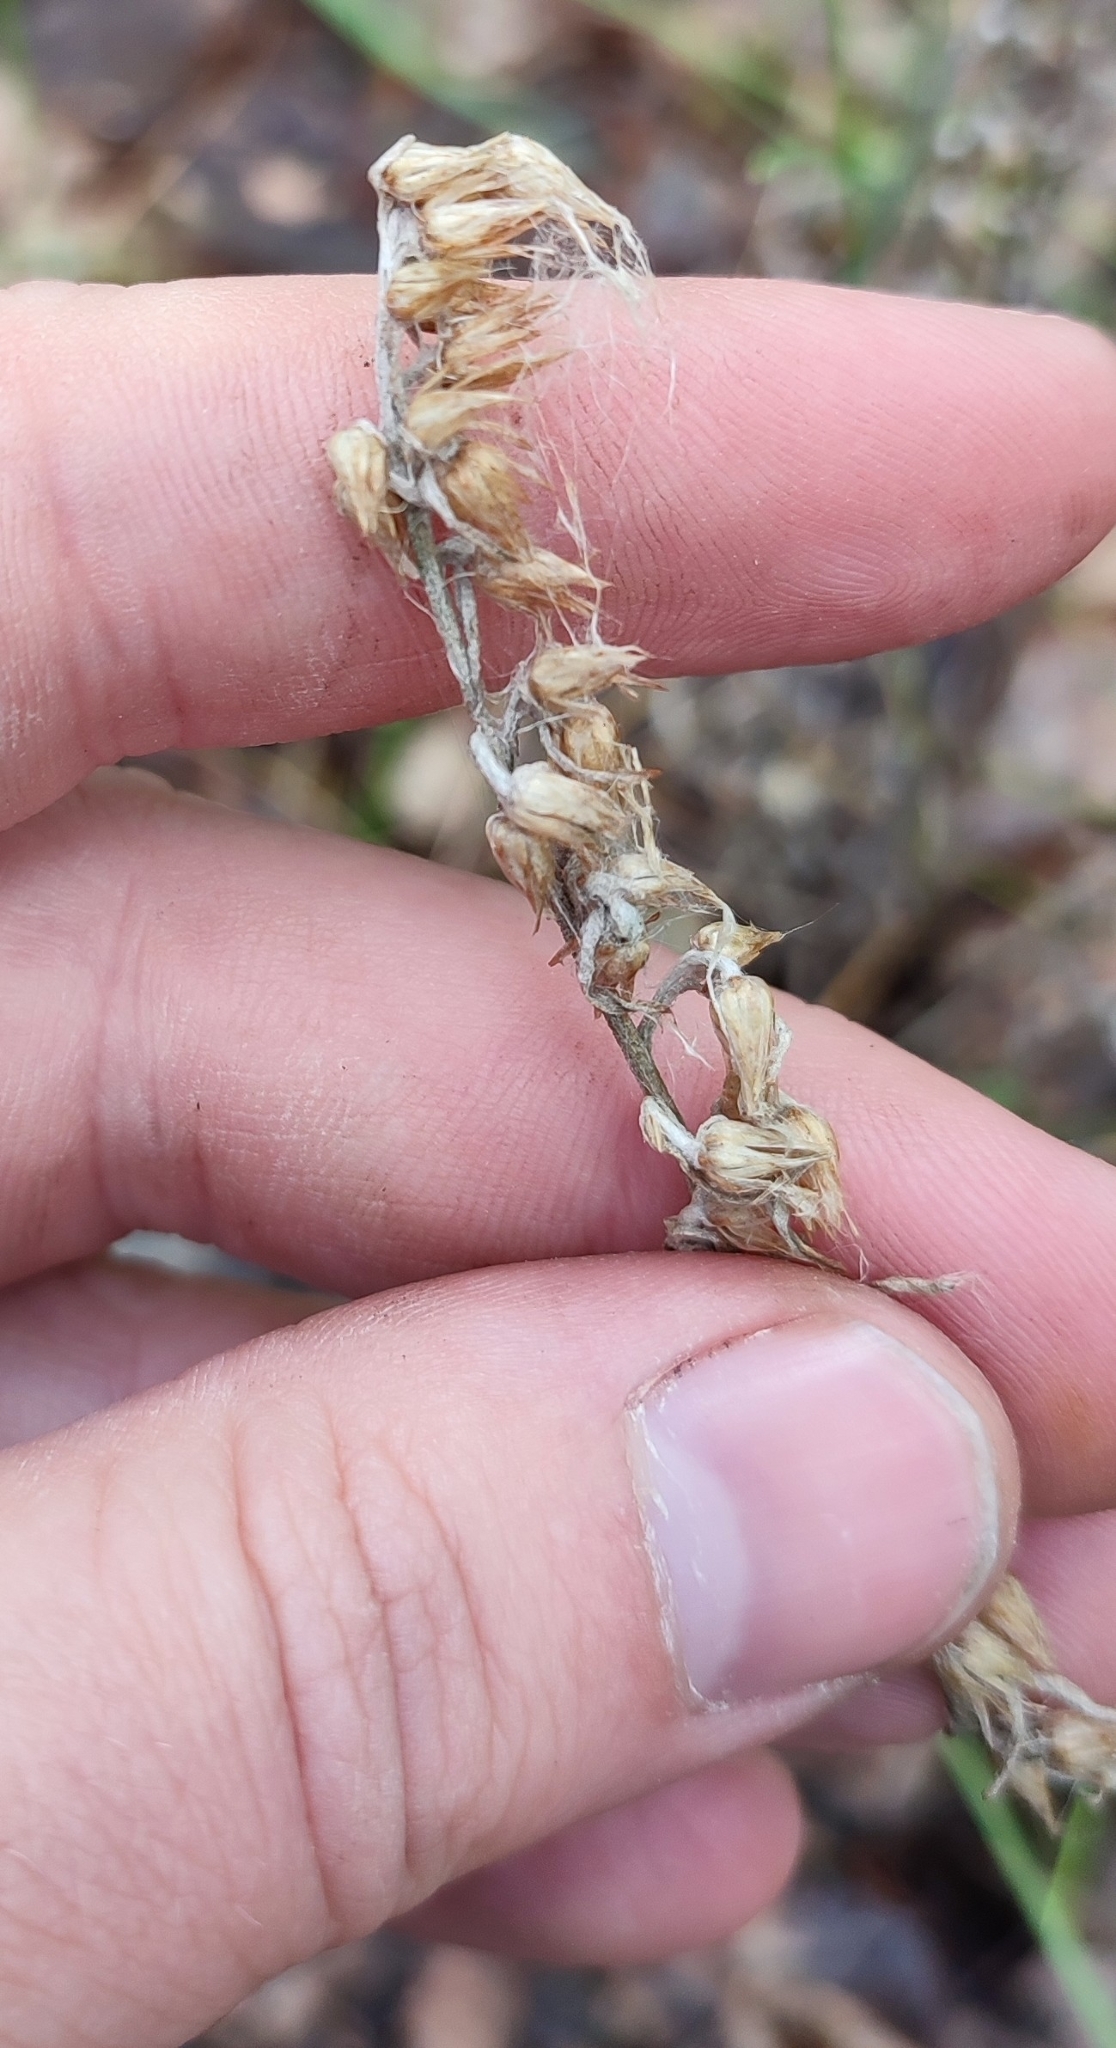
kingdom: Plantae
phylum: Tracheophyta
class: Magnoliopsida
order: Asterales
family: Asteraceae
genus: Omalotheca
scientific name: Omalotheca sylvatica
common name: Heath cudweed
